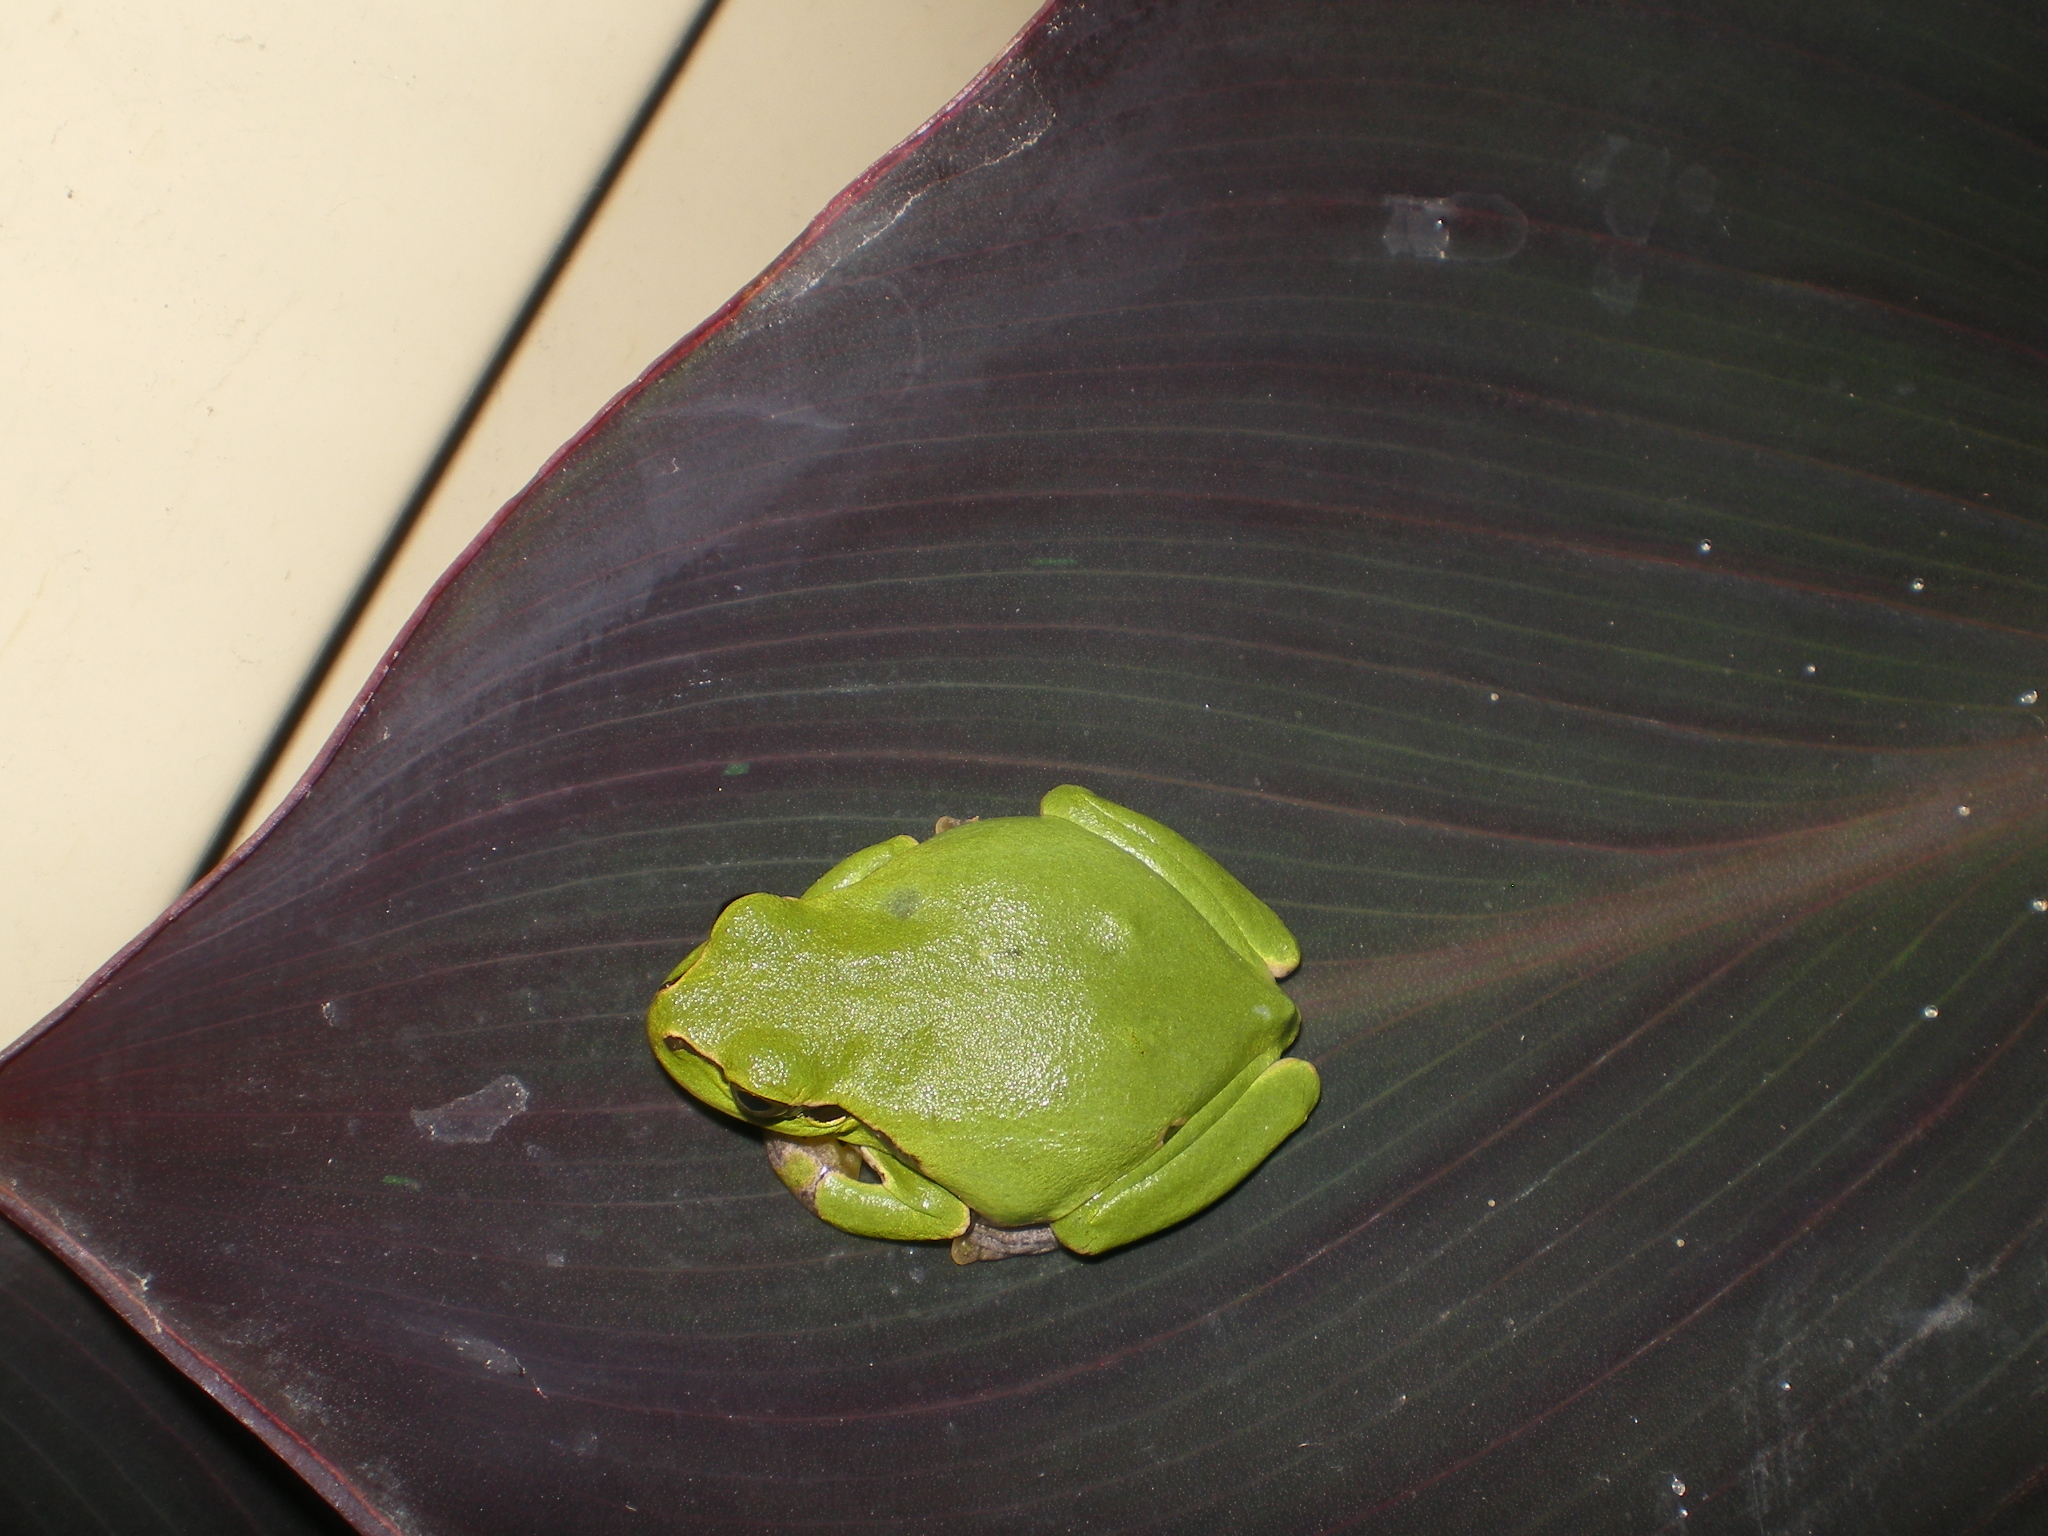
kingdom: Animalia
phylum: Chordata
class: Amphibia
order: Anura
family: Hylidae
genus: Hyla
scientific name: Hyla orientalis
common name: Caucasian treefrog
